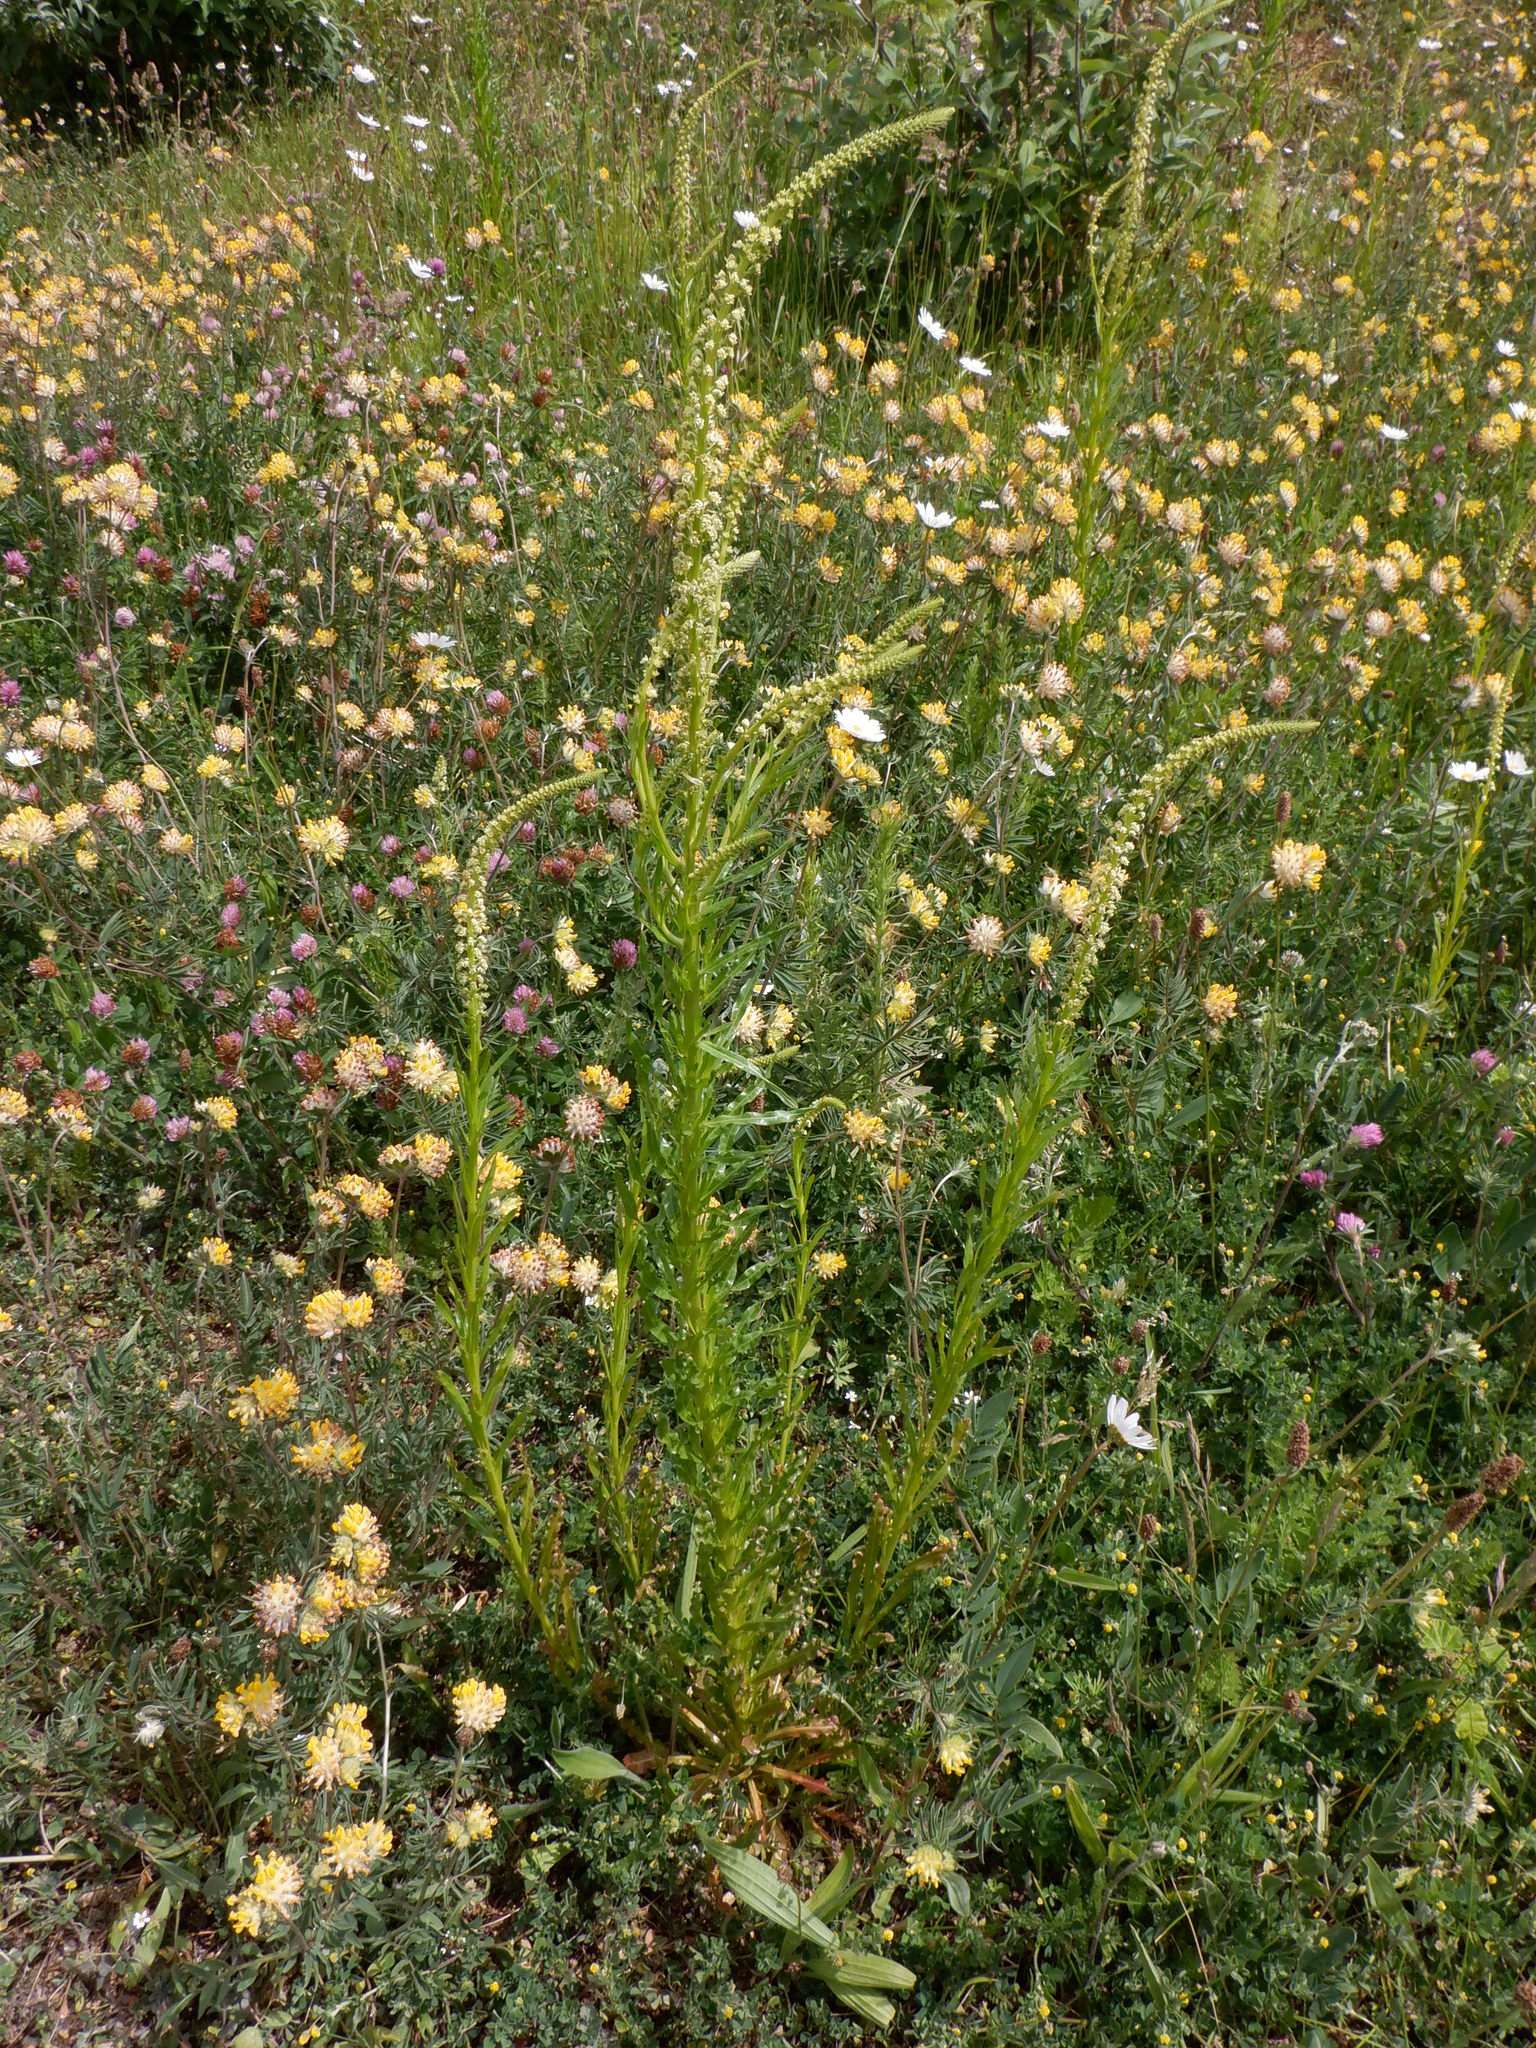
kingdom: Plantae
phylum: Tracheophyta
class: Magnoliopsida
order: Brassicales
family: Resedaceae
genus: Reseda
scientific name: Reseda luteola
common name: Weld
